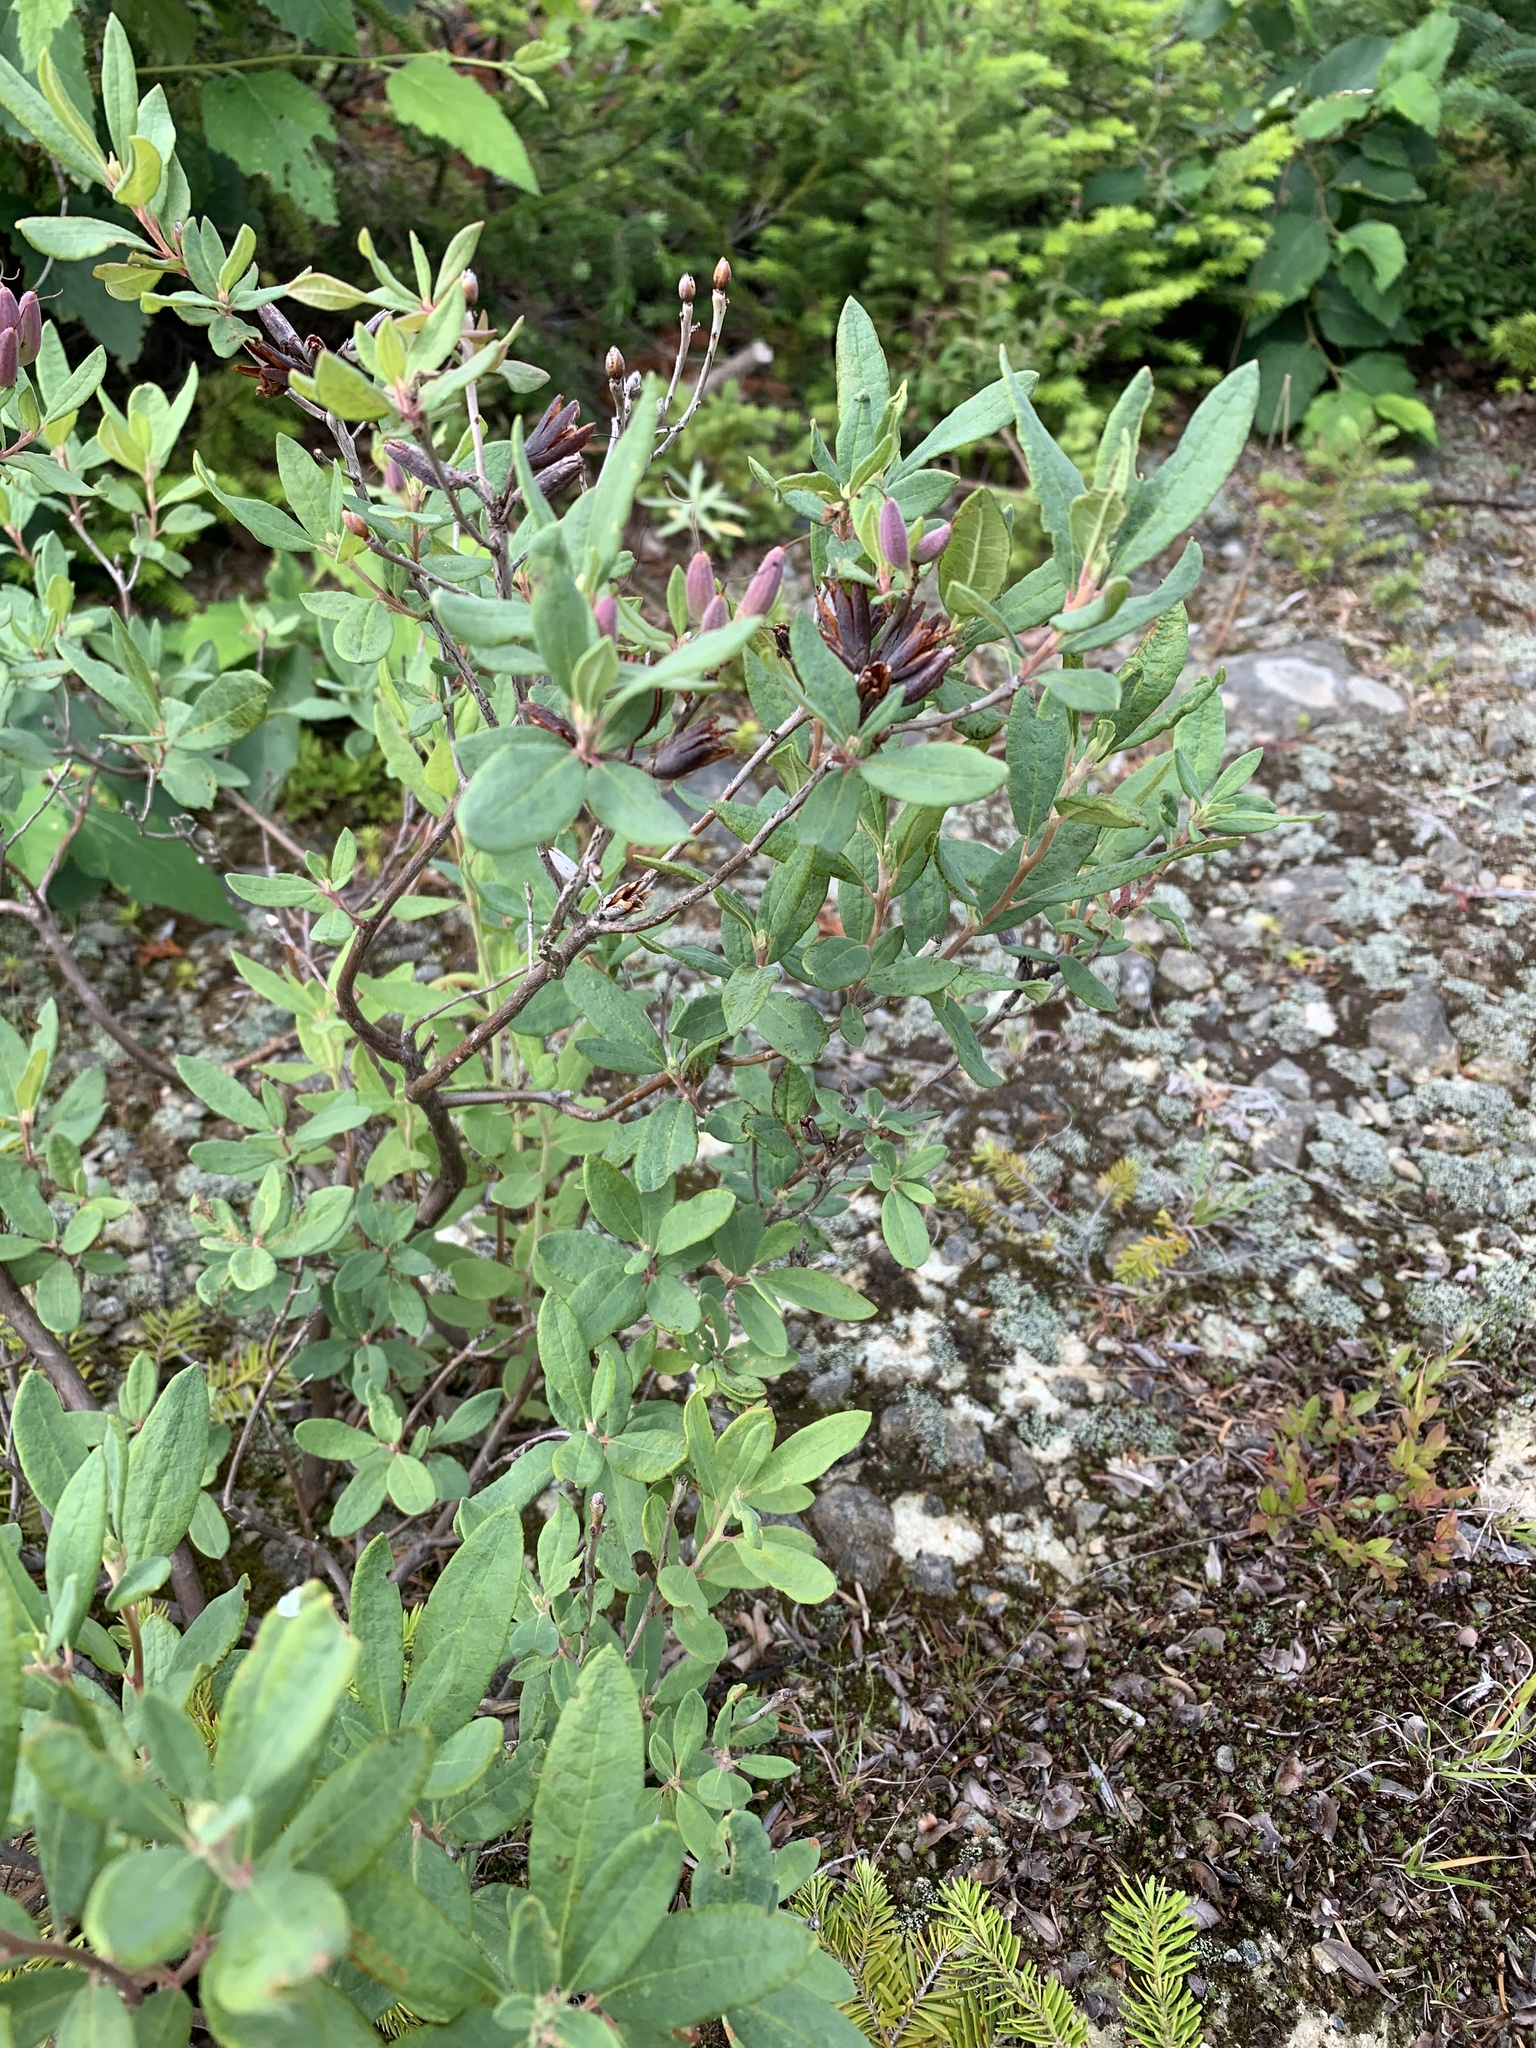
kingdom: Plantae
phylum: Tracheophyta
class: Magnoliopsida
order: Ericales
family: Ericaceae
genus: Rhododendron
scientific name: Rhododendron canadense
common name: Rhodora
